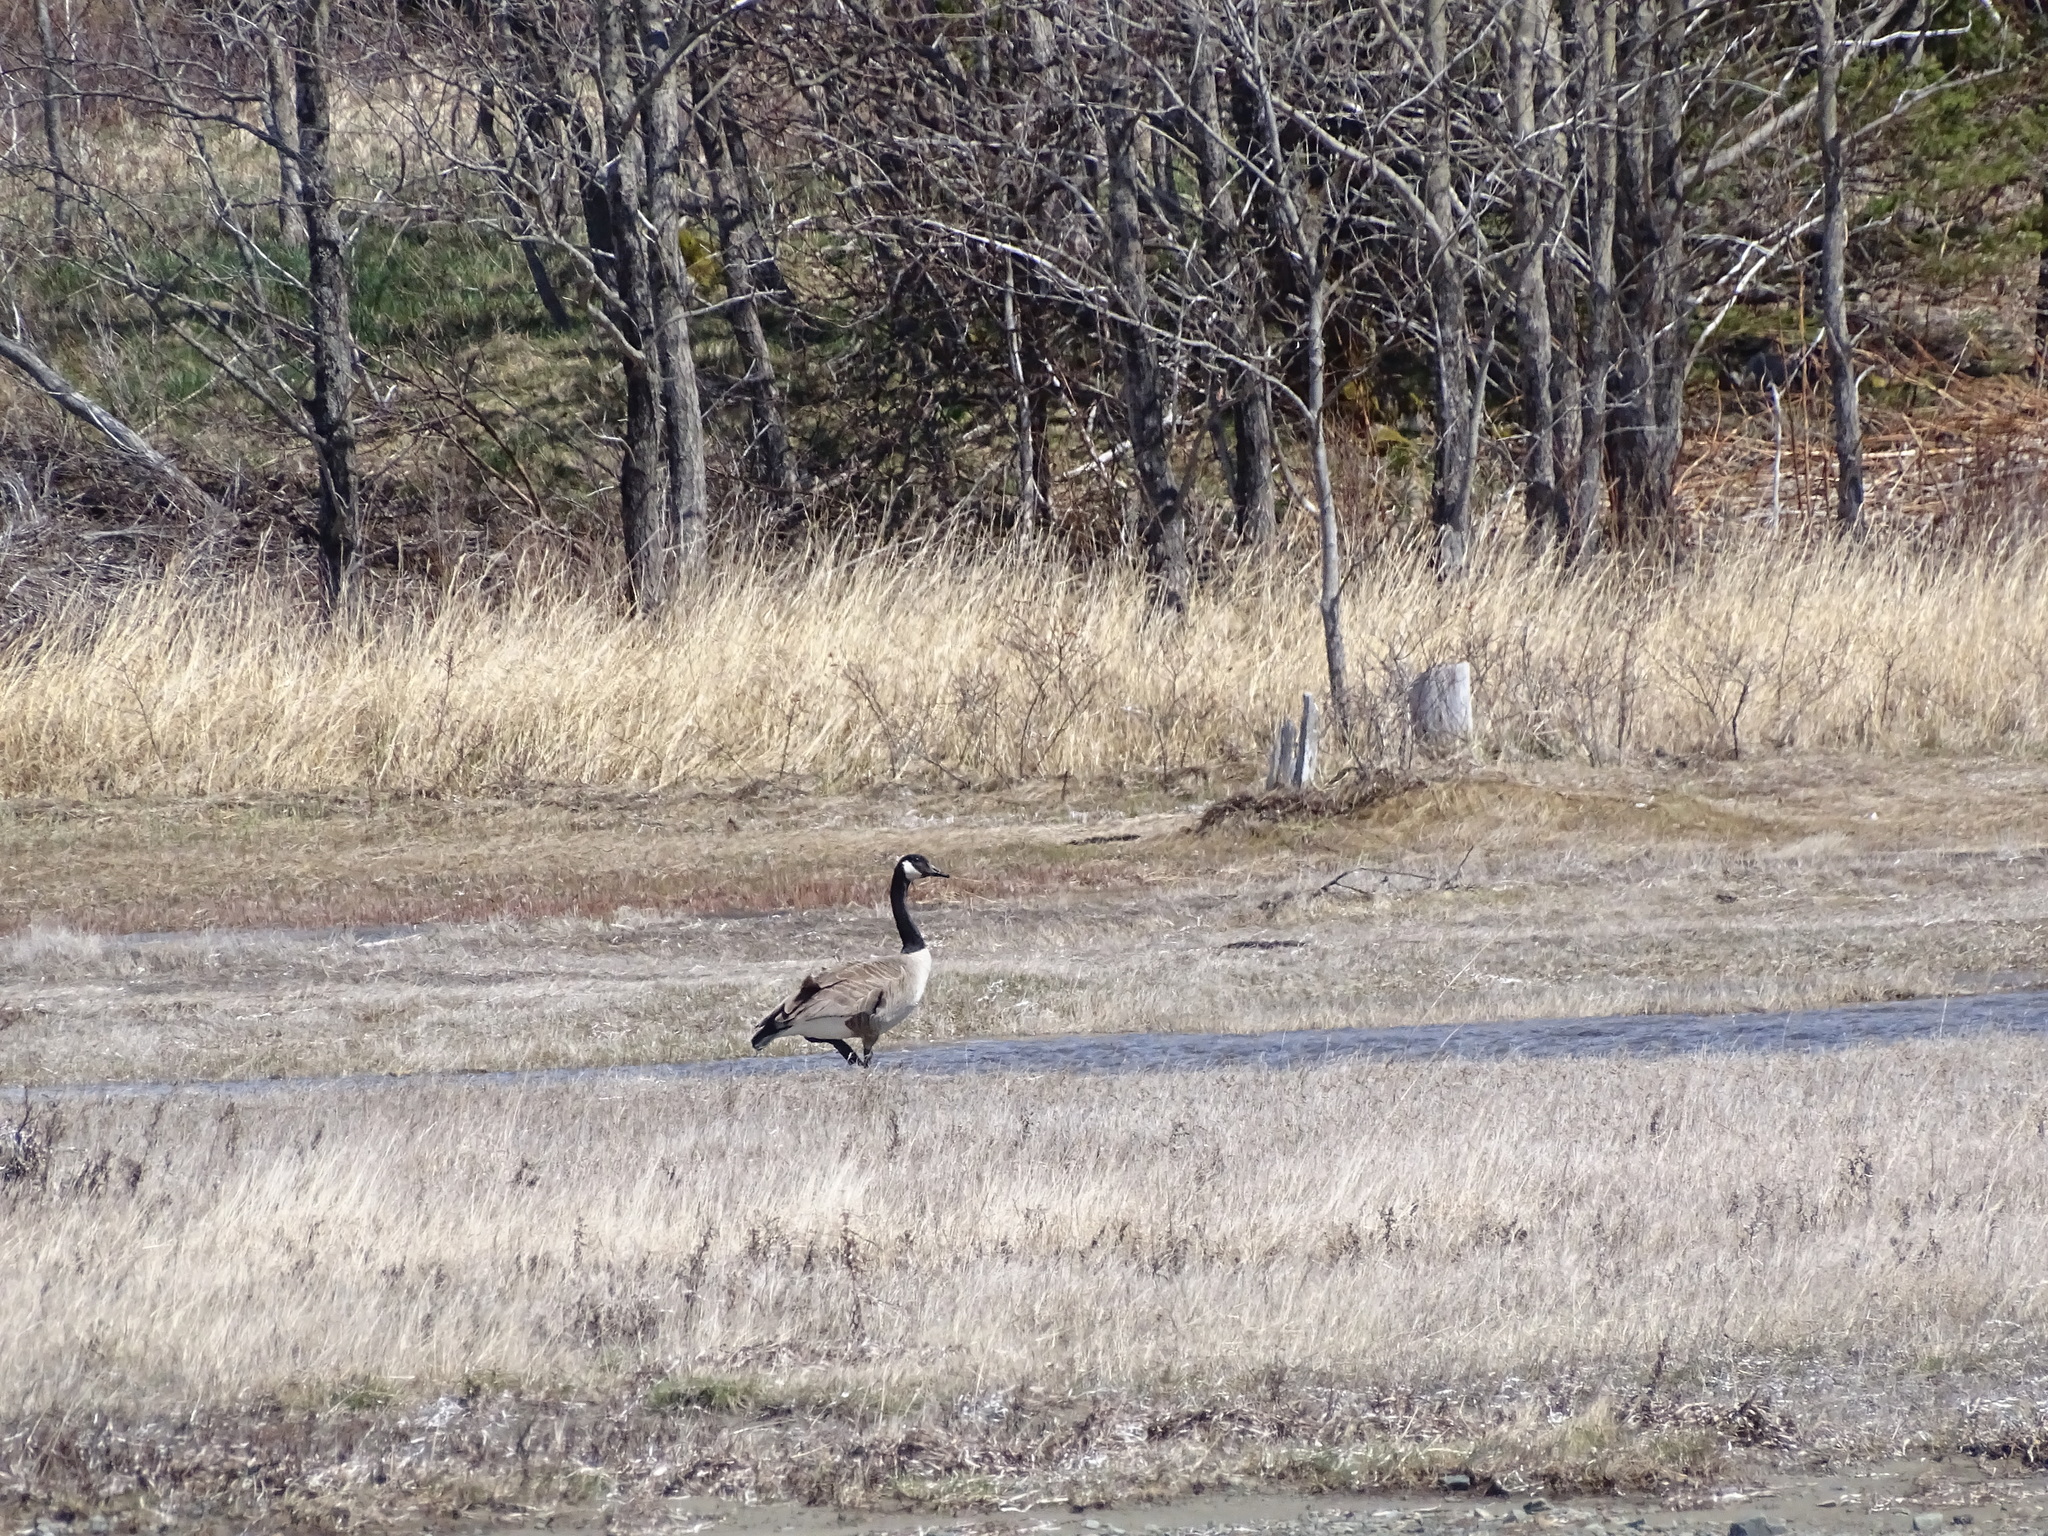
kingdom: Animalia
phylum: Chordata
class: Aves
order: Anseriformes
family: Anatidae
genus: Branta
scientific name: Branta canadensis
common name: Canada goose
